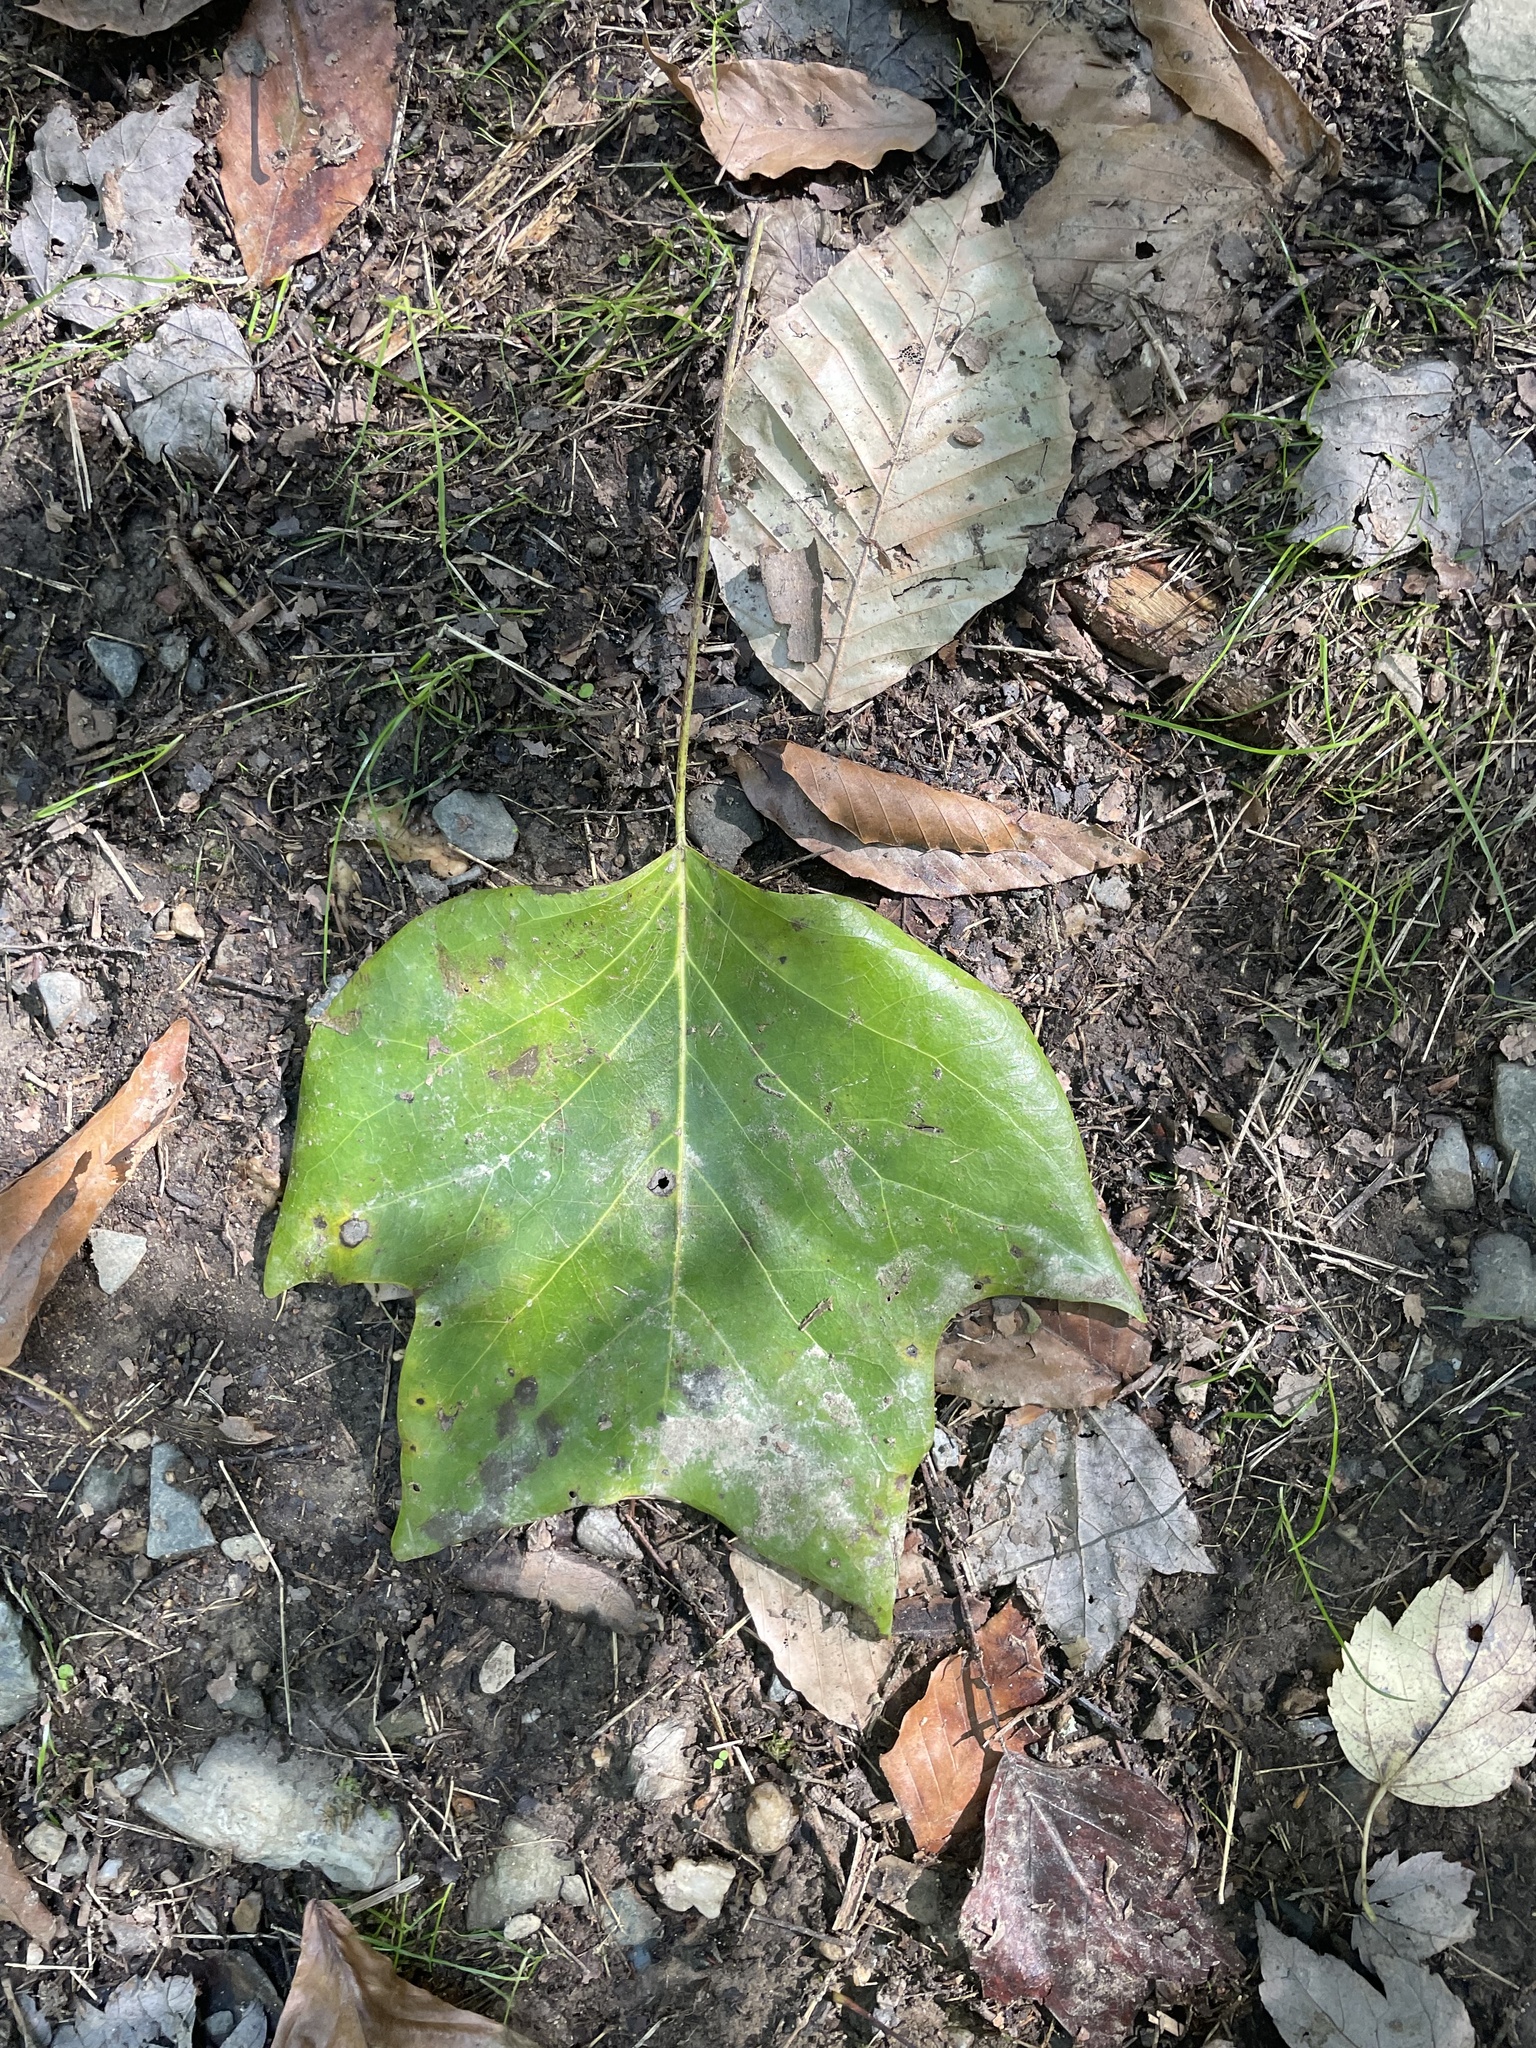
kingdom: Plantae
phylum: Tracheophyta
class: Magnoliopsida
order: Magnoliales
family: Magnoliaceae
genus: Liriodendron
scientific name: Liriodendron tulipifera
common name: Tulip tree
